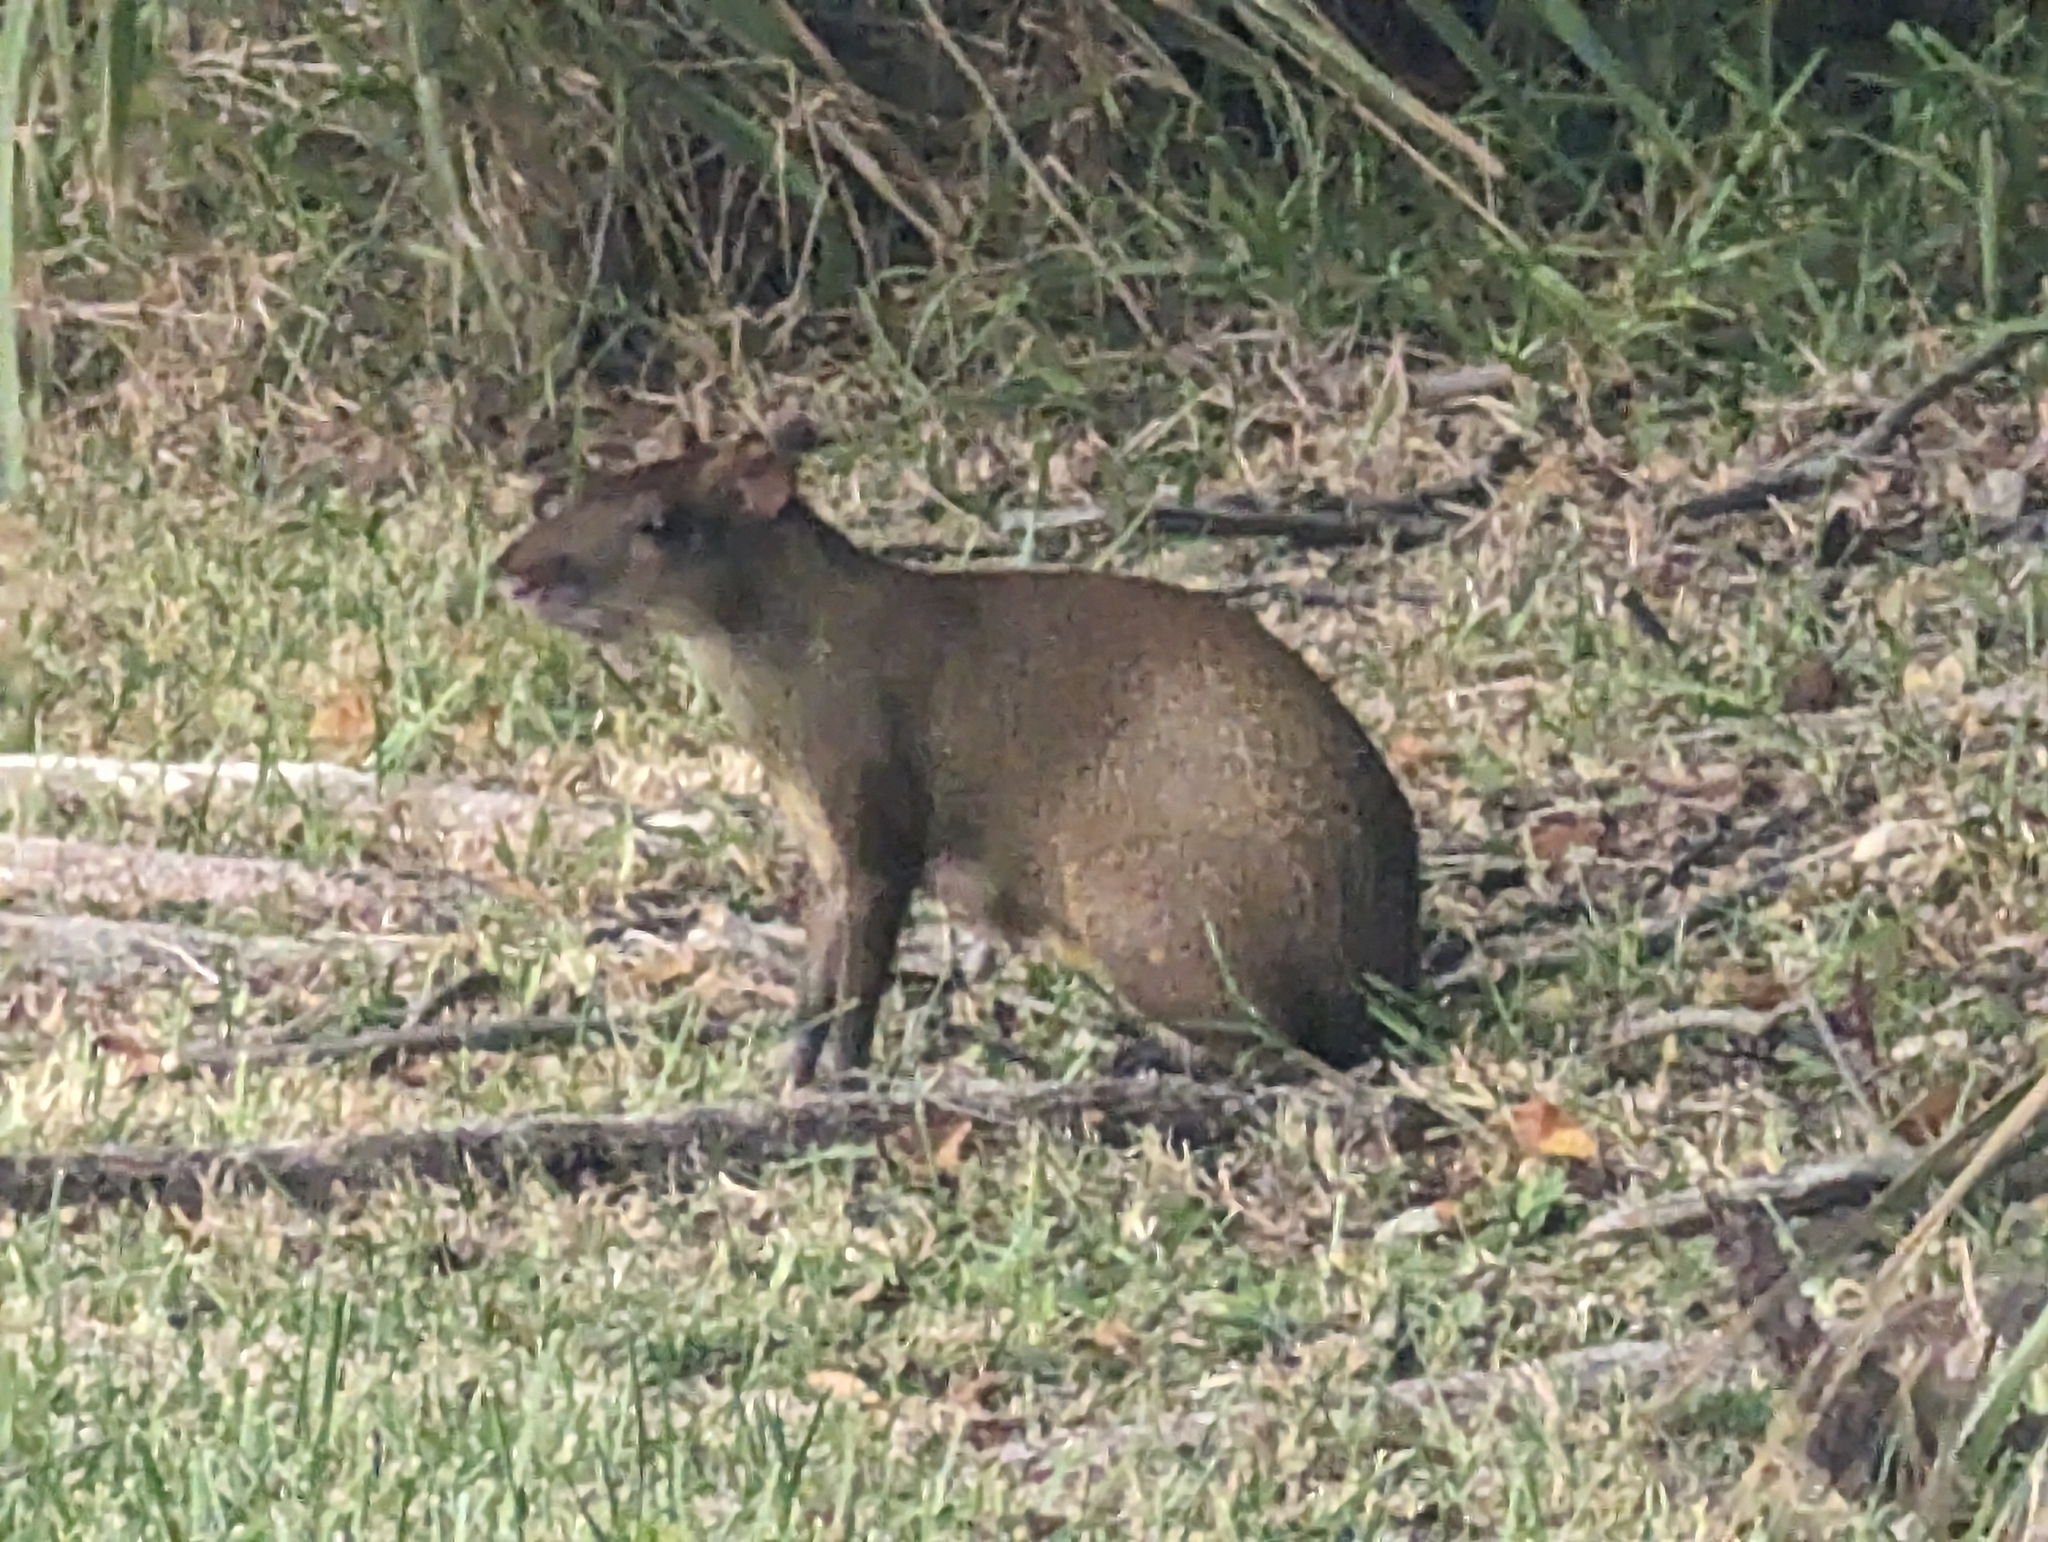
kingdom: Animalia
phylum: Chordata
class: Mammalia
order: Rodentia
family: Dasyproctidae
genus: Dasyprocta
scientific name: Dasyprocta punctata
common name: Central american agouti
